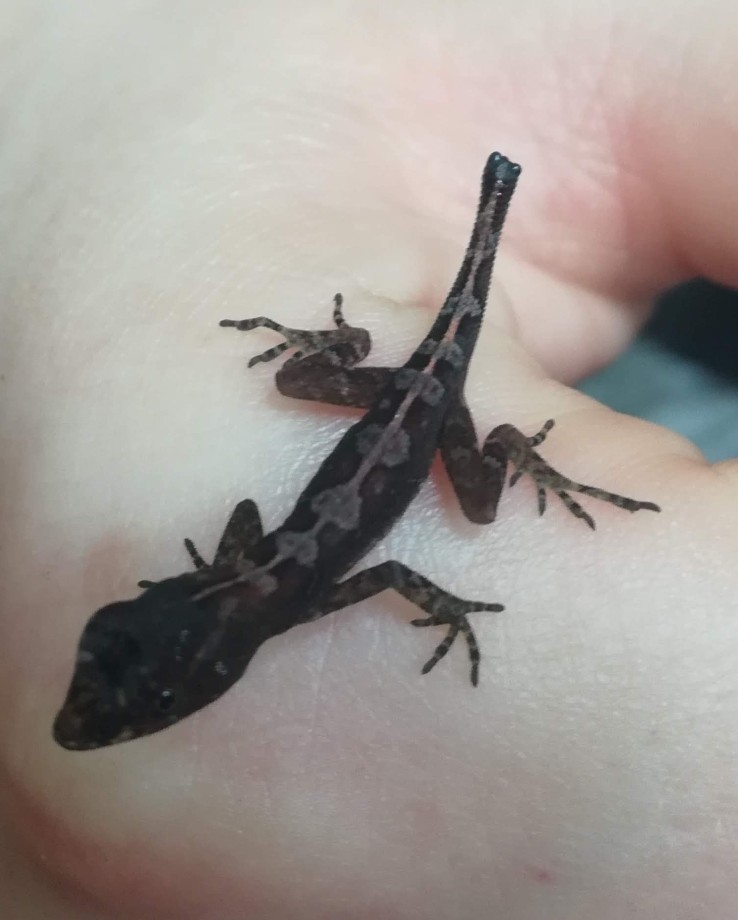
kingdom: Animalia
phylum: Chordata
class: Squamata
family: Dactyloidae
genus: Anolis
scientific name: Anolis humilis
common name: Humble anole
